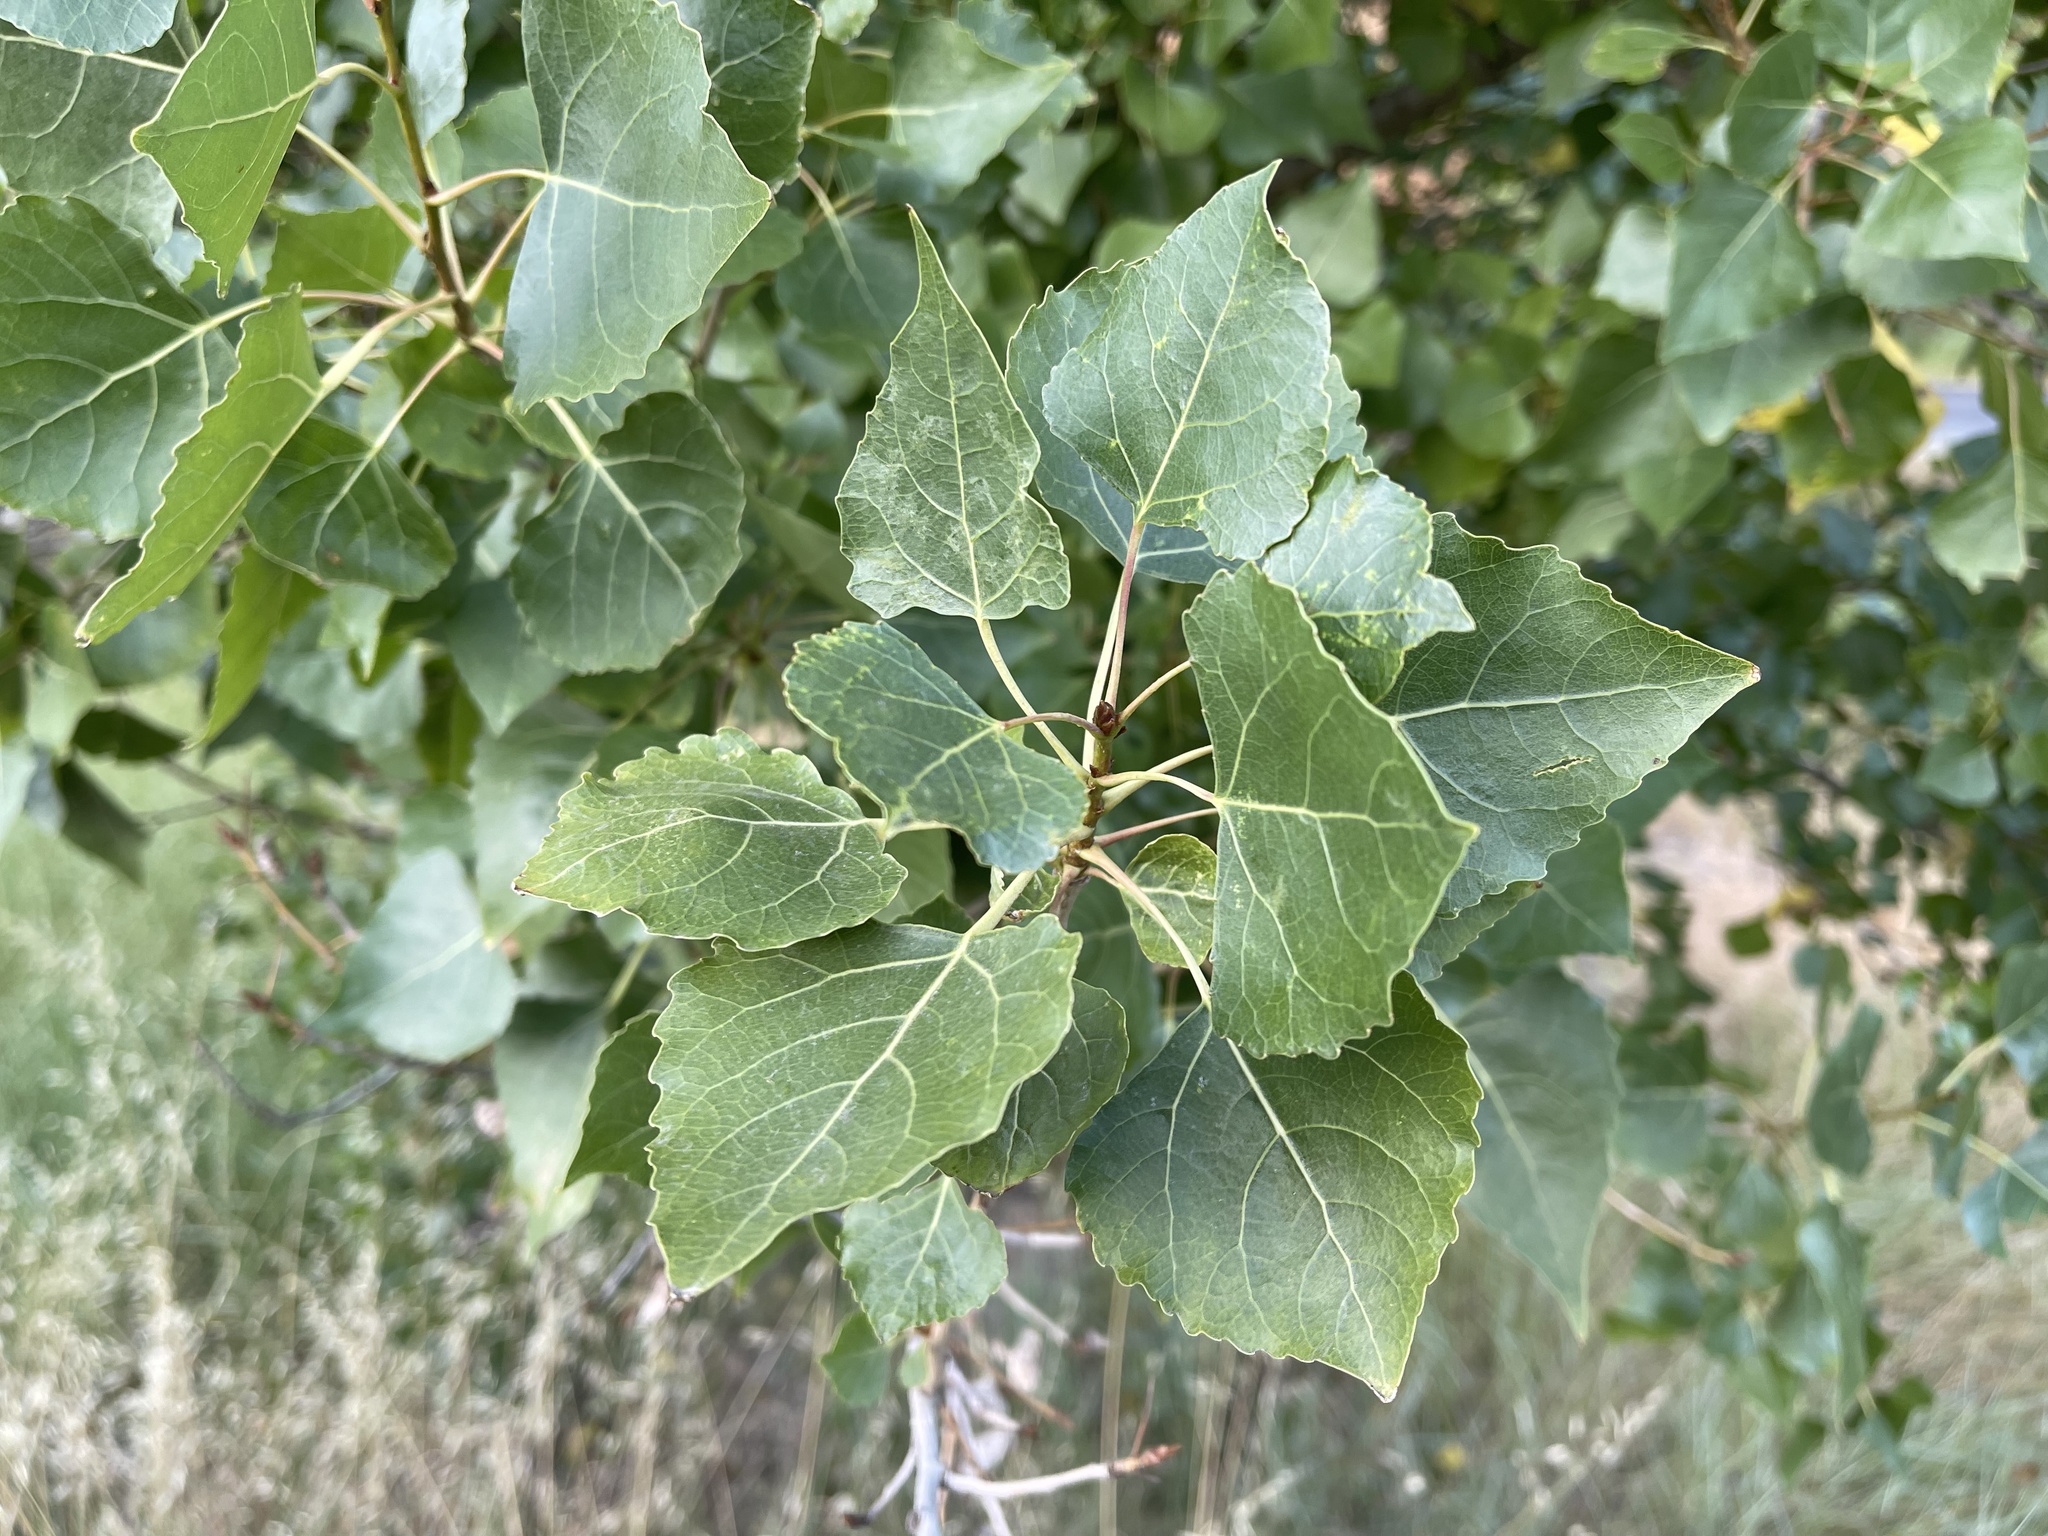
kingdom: Plantae
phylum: Tracheophyta
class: Magnoliopsida
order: Malpighiales
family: Salicaceae
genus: Populus
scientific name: Populus fremontii
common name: Fremont's cottonwood
